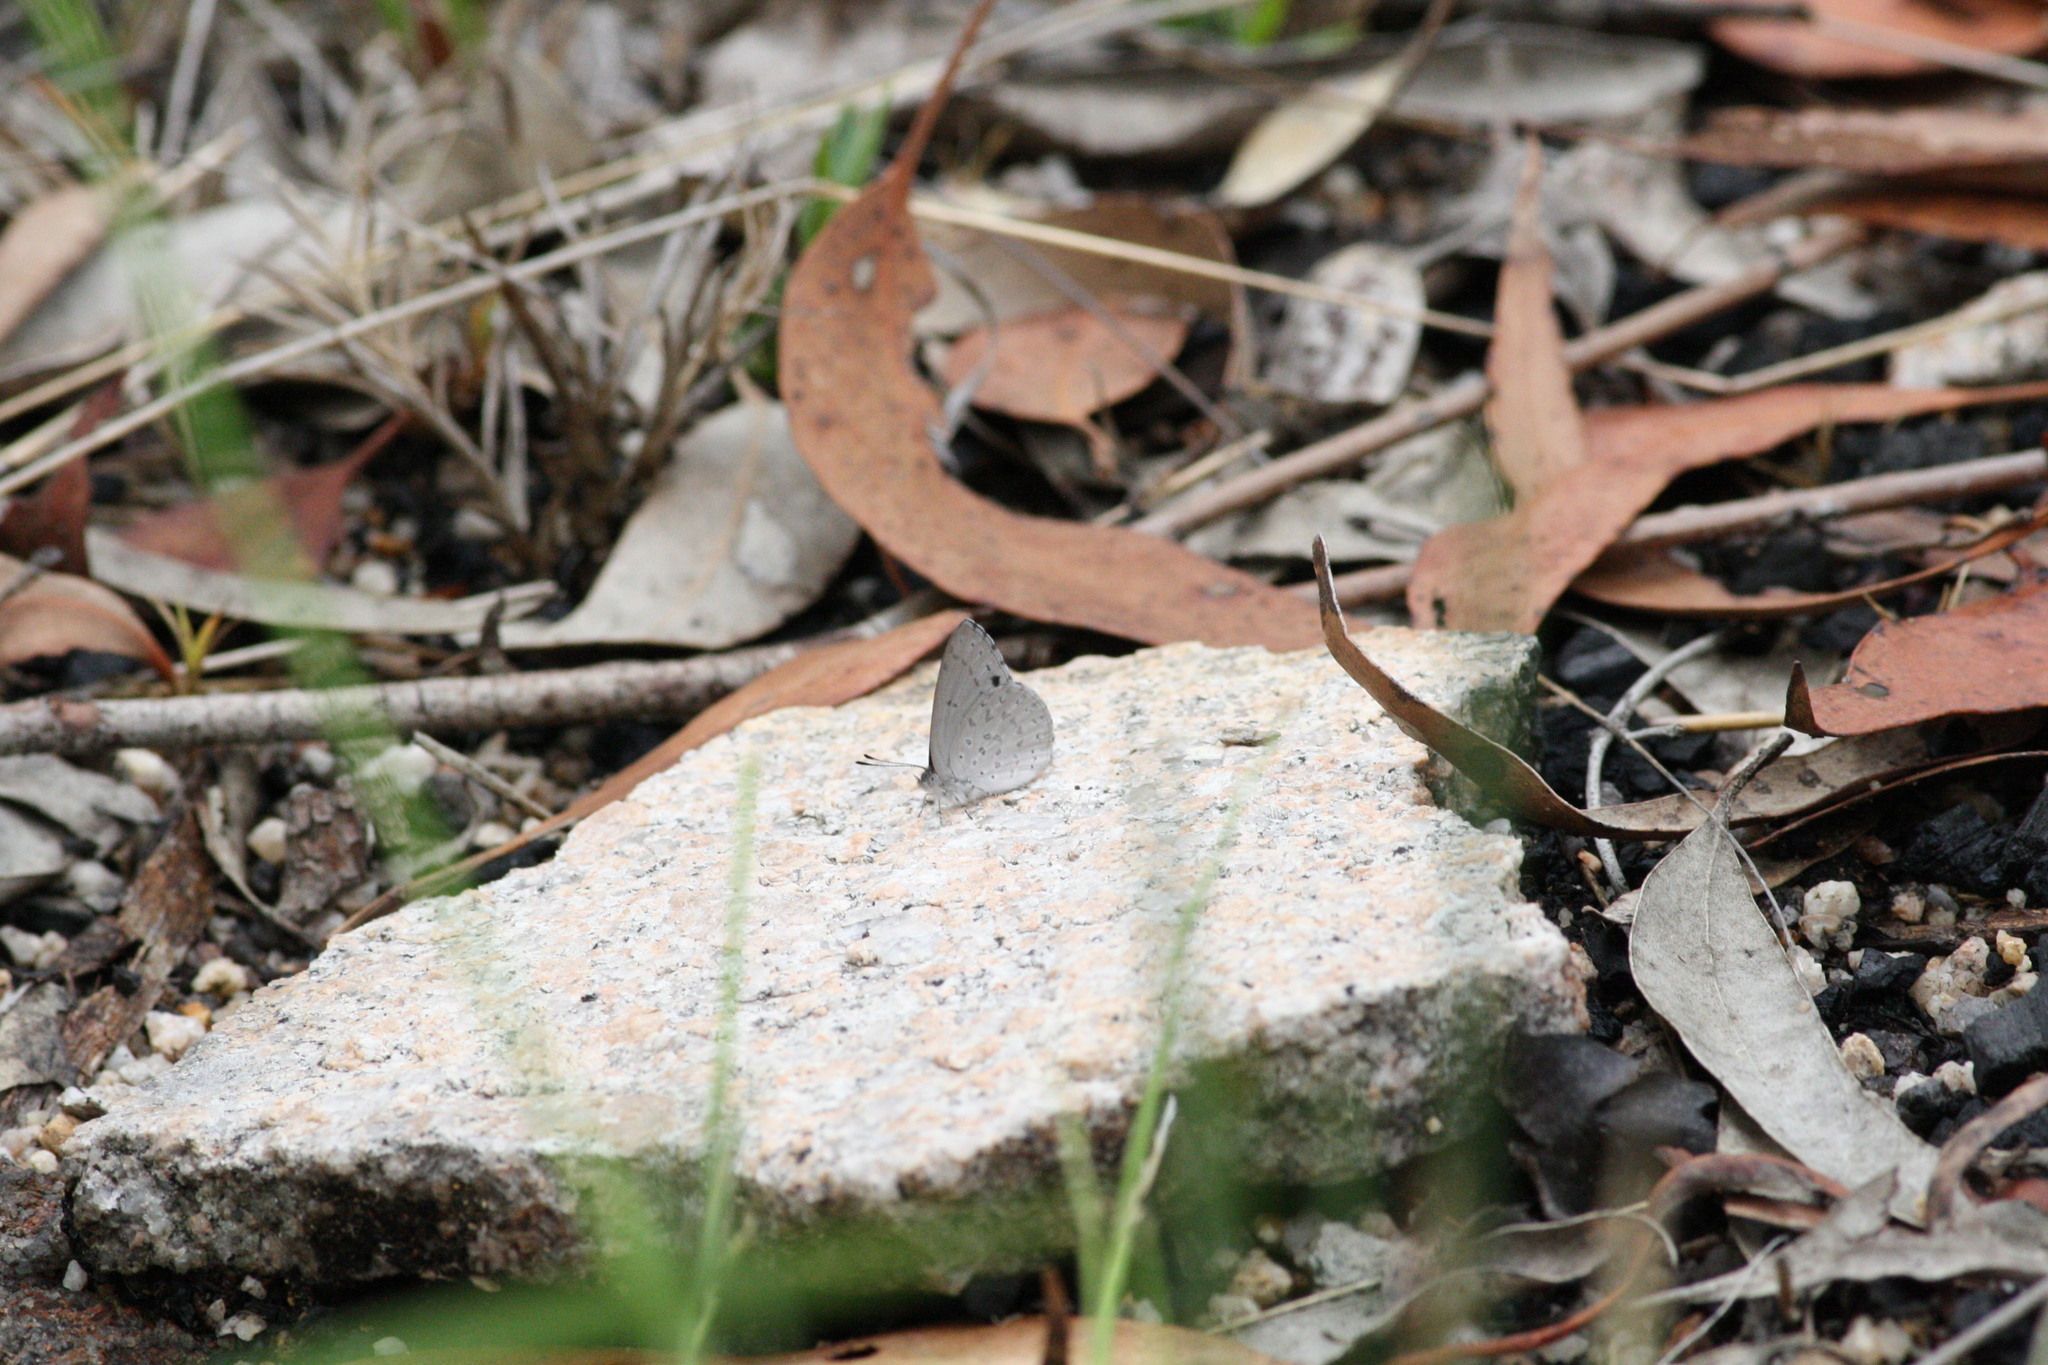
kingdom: Animalia
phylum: Arthropoda
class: Insecta
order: Lepidoptera
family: Lycaenidae
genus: Candalides
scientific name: Candalides
